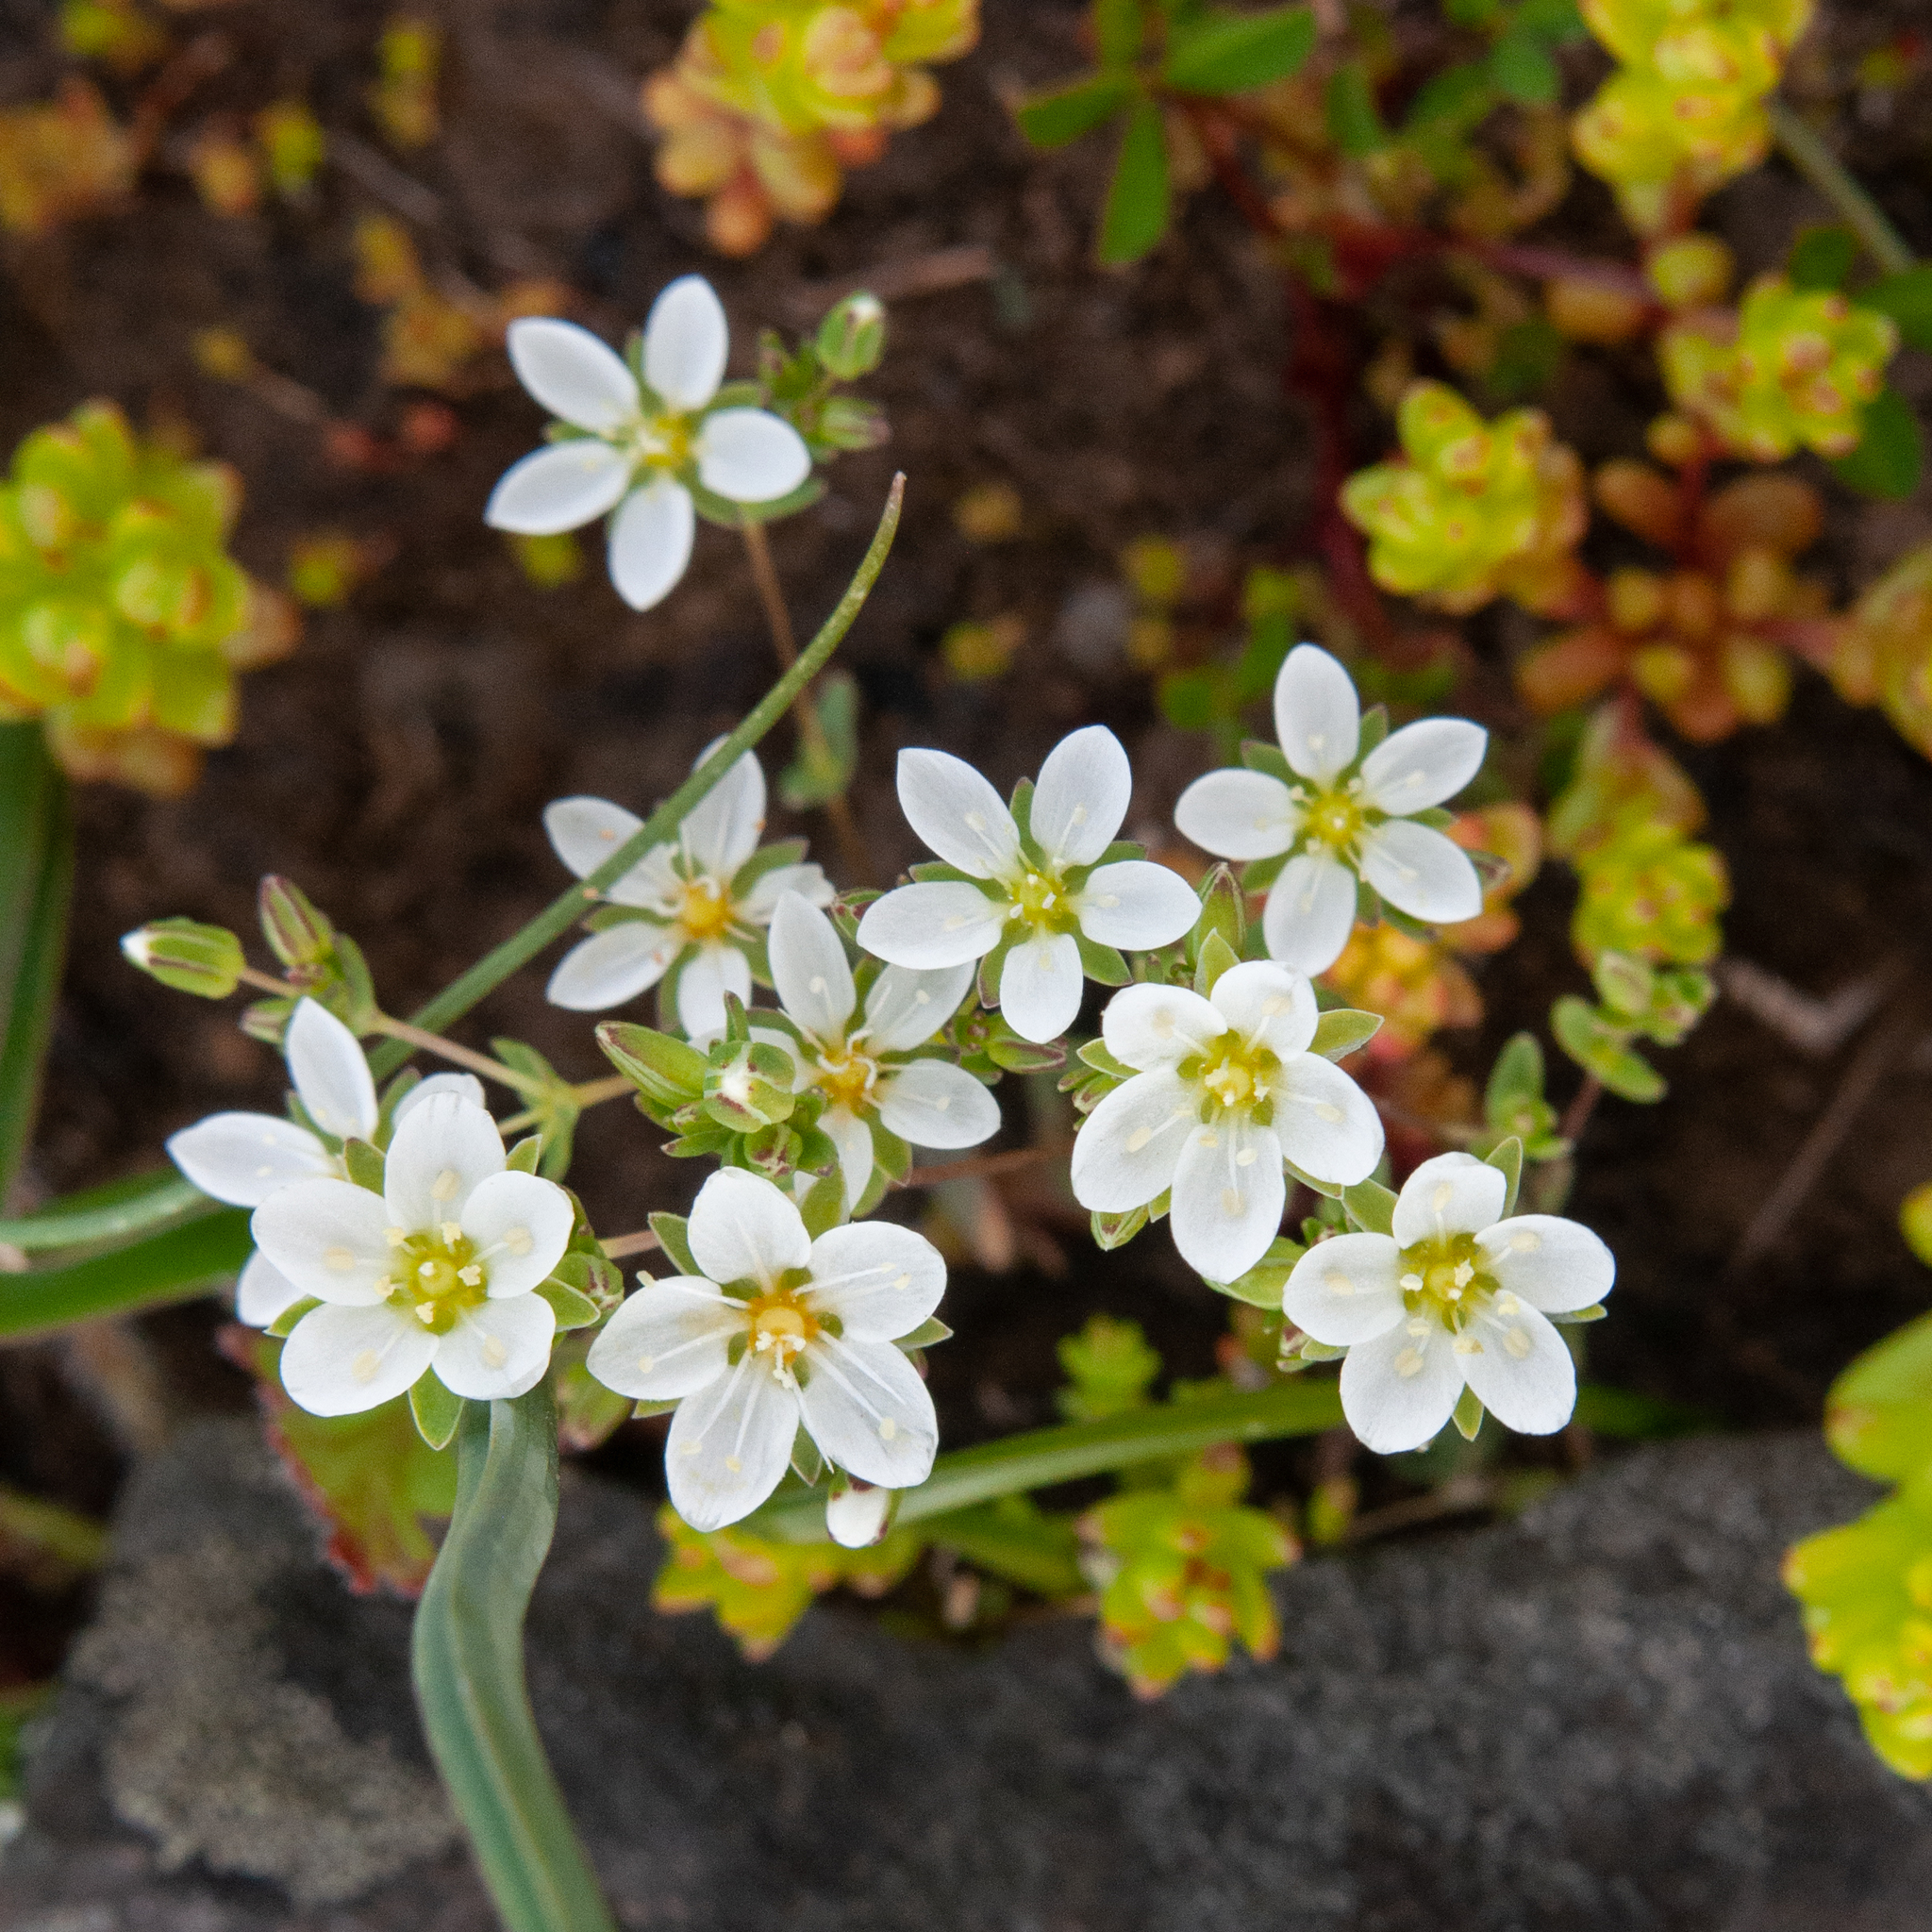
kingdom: Plantae
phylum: Tracheophyta
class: Magnoliopsida
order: Caryophyllales
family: Caryophyllaceae
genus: Sabulina
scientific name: Sabulina californica
